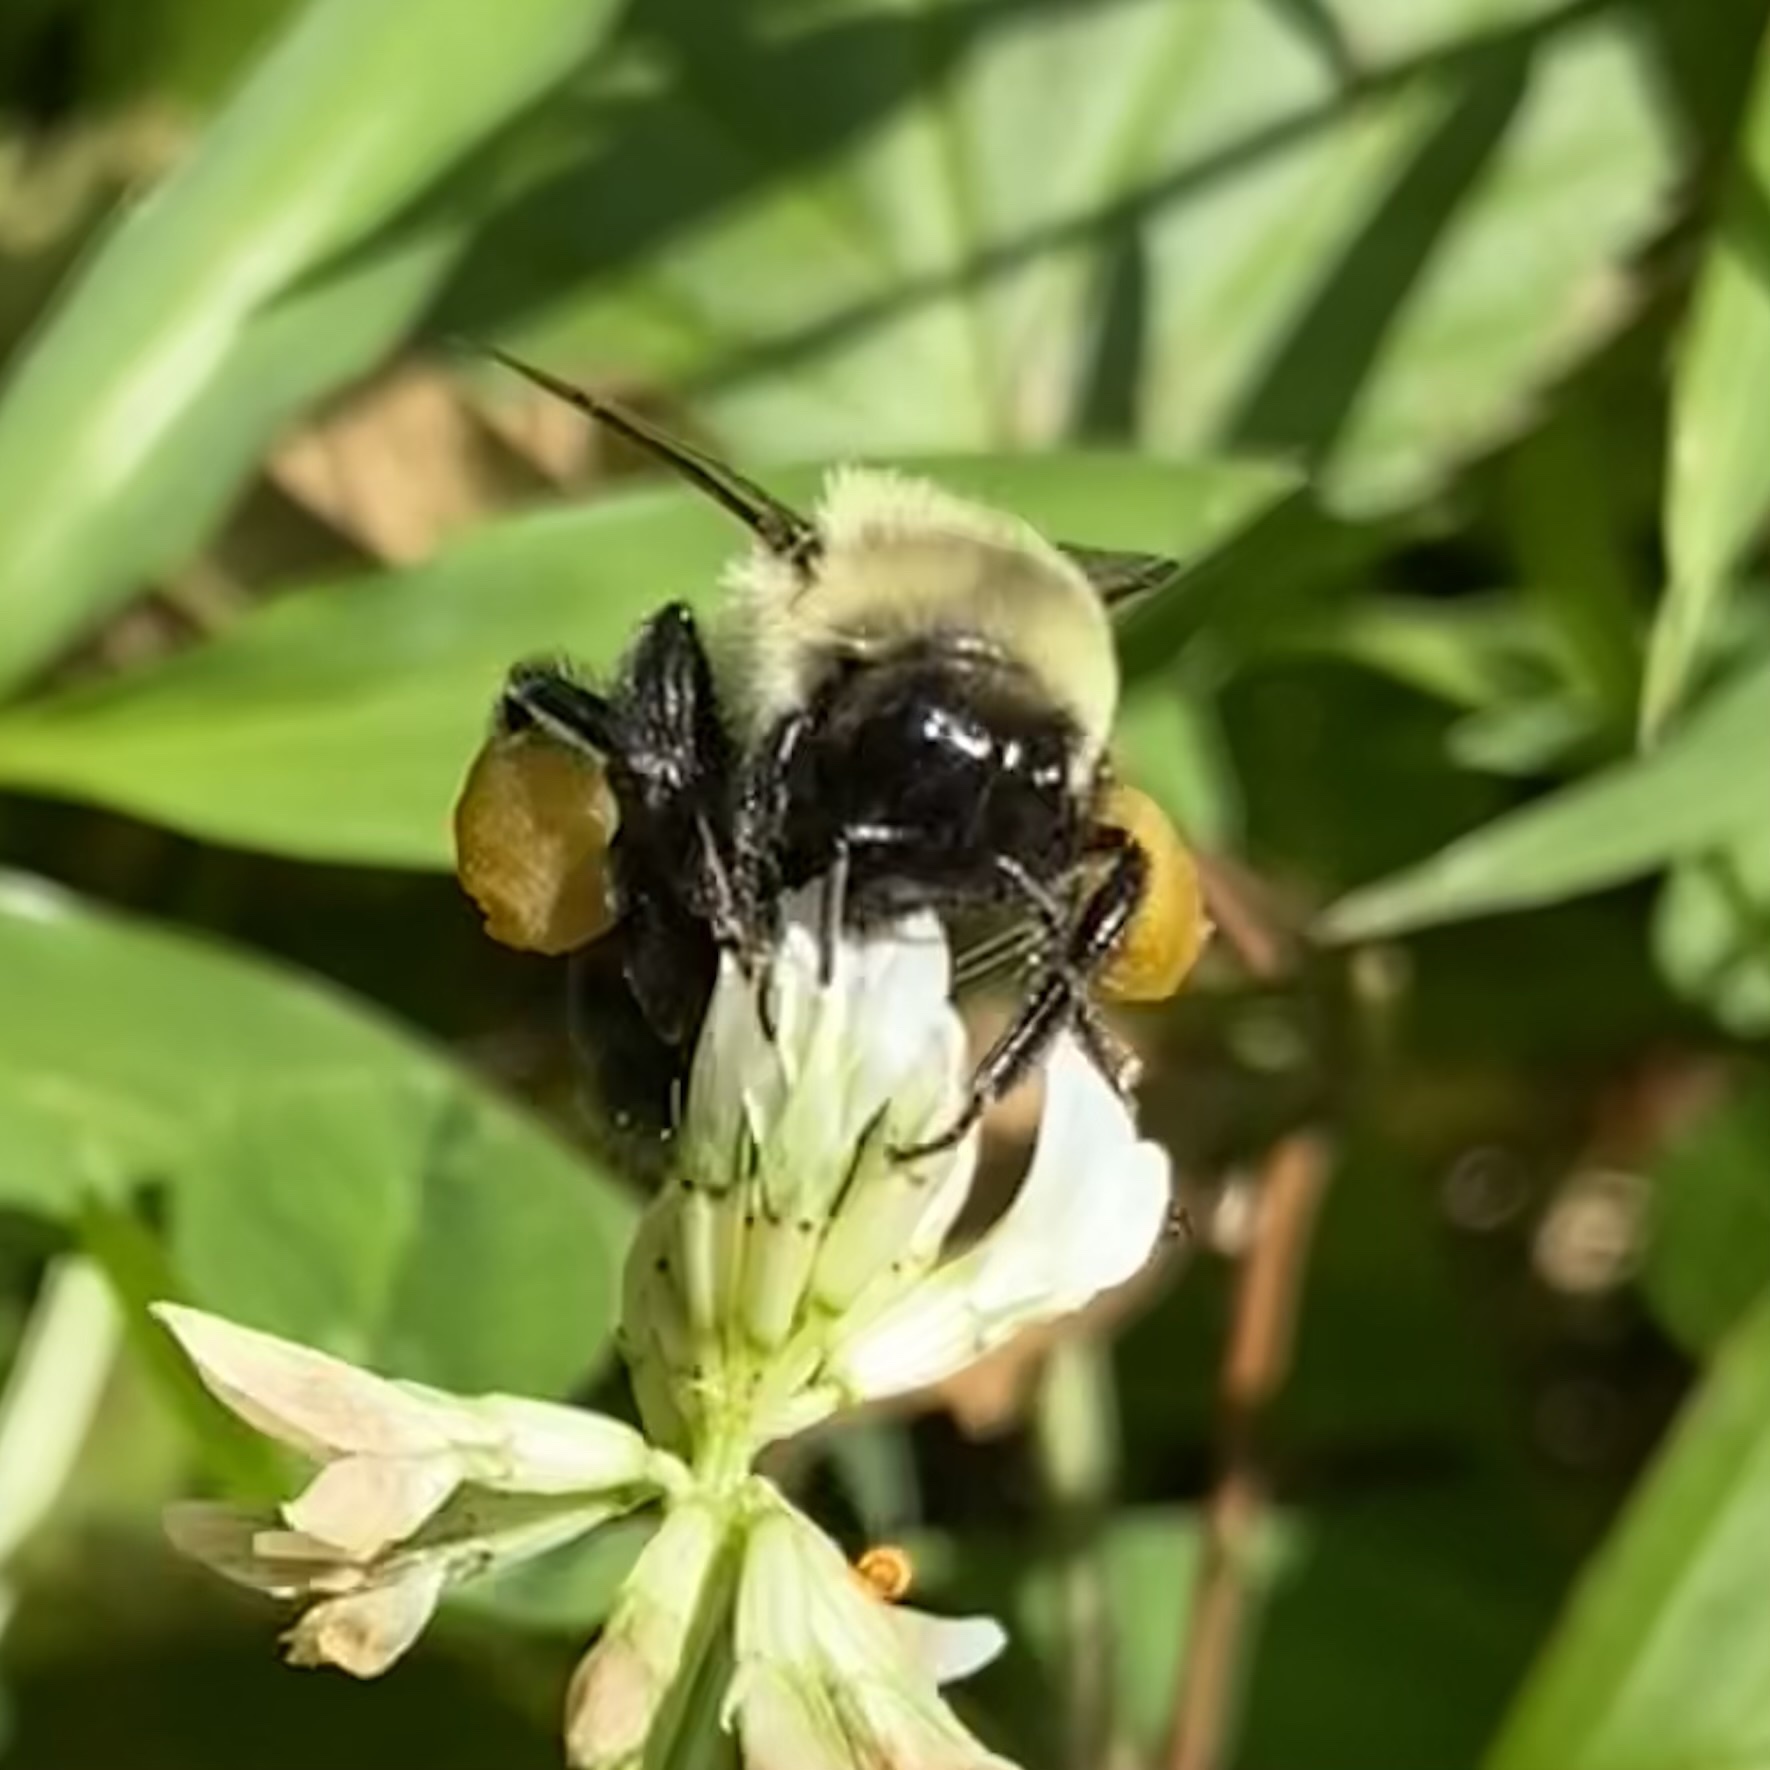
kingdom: Animalia
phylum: Arthropoda
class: Insecta
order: Hymenoptera
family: Apidae
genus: Bombus
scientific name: Bombus impatiens
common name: Common eastern bumble bee
